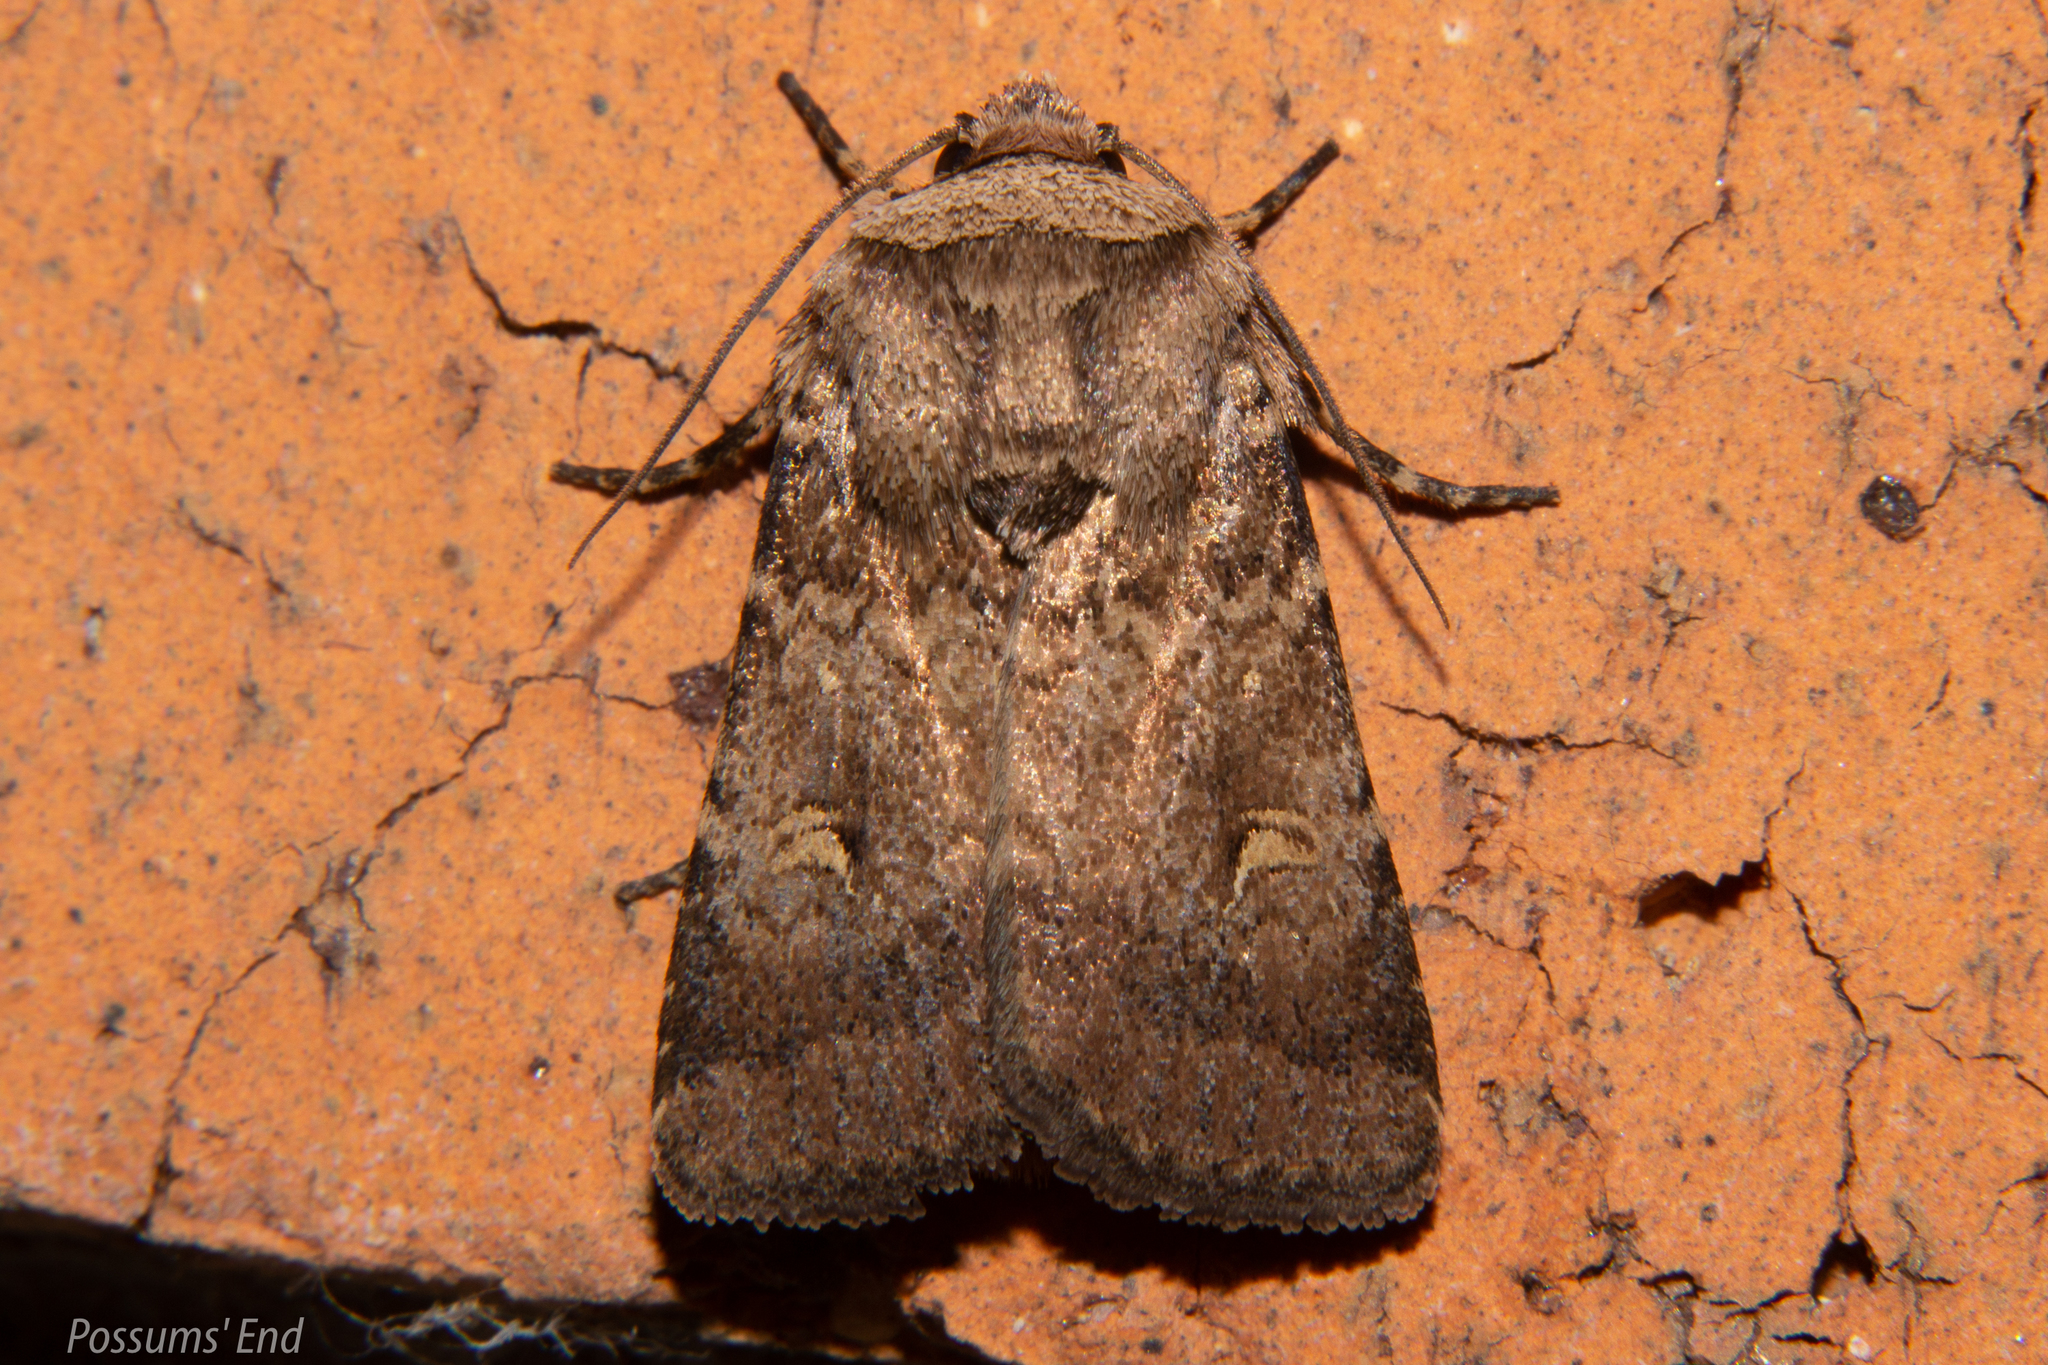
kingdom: Animalia
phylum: Arthropoda
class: Insecta
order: Lepidoptera
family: Noctuidae
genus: Proteuxoa
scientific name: Proteuxoa tetronycha
